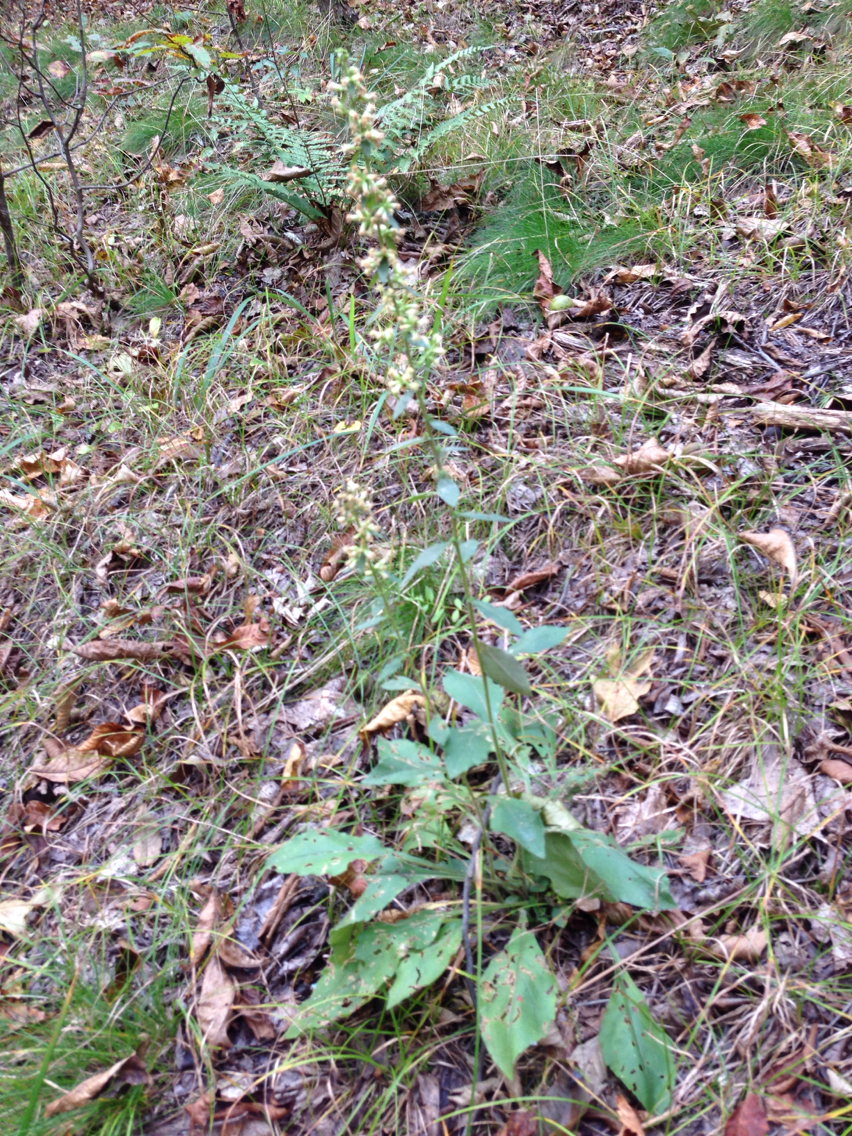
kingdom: Plantae
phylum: Tracheophyta
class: Magnoliopsida
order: Asterales
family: Asteraceae
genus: Solidago
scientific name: Solidago bicolor
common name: Silverrod
